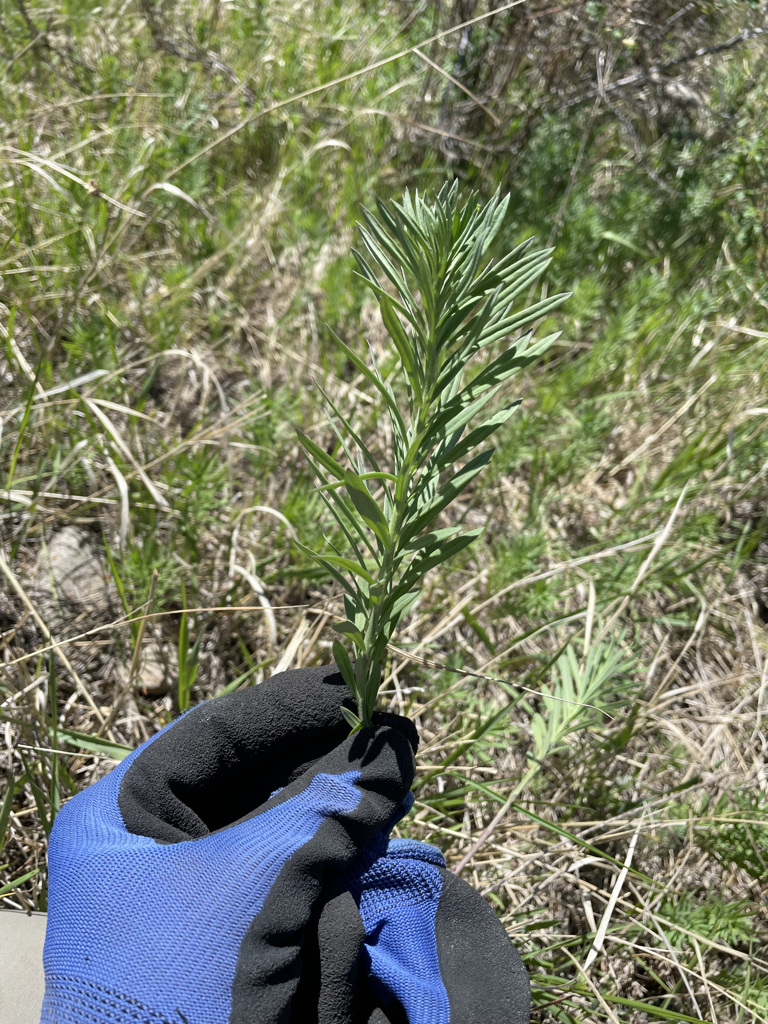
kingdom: Plantae
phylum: Tracheophyta
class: Magnoliopsida
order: Lamiales
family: Plantaginaceae
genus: Linaria
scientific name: Linaria vulgaris
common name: Butter and eggs
